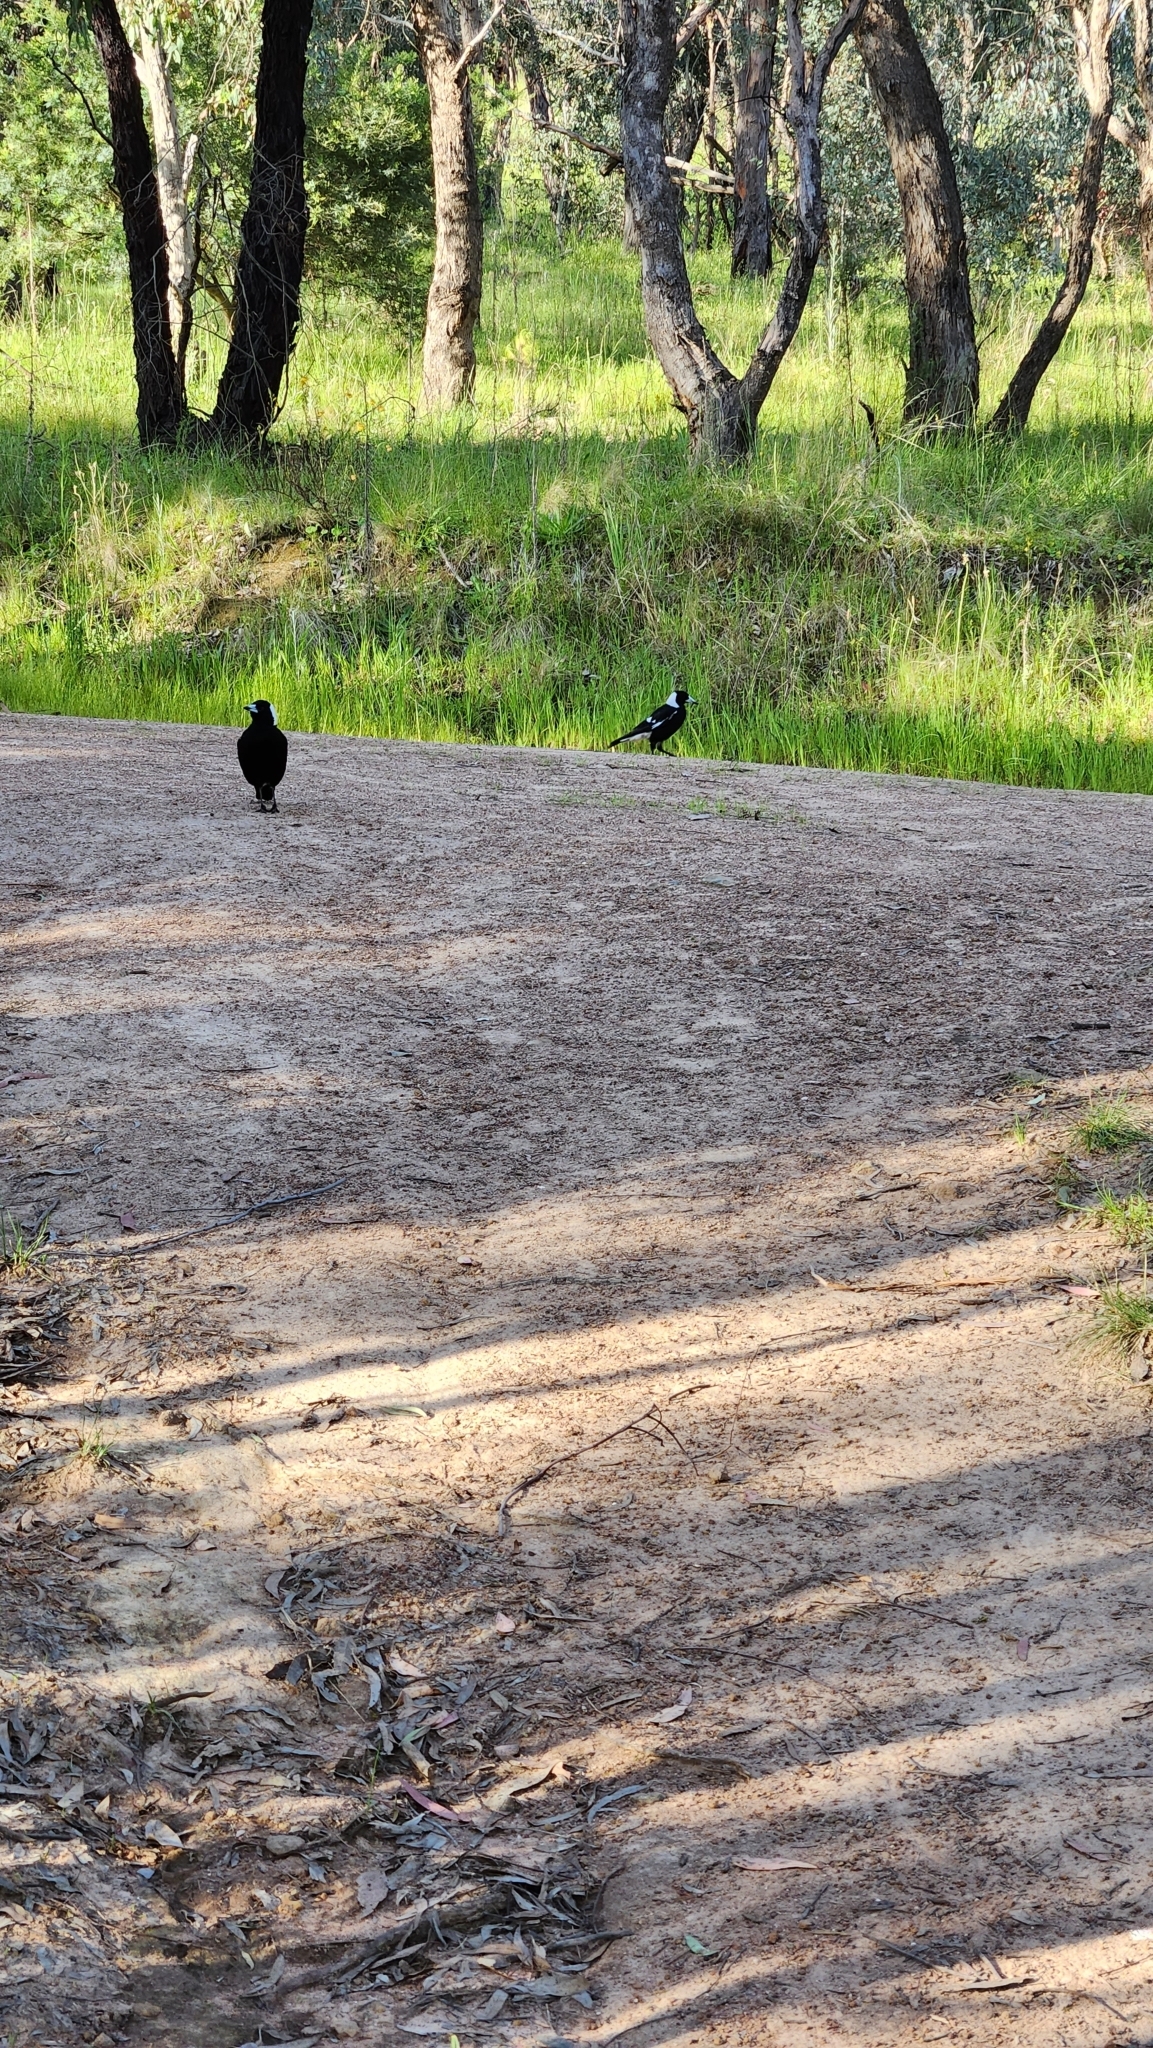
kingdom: Animalia
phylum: Chordata
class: Aves
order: Passeriformes
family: Cracticidae
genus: Gymnorhina
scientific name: Gymnorhina tibicen
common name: Australian magpie
